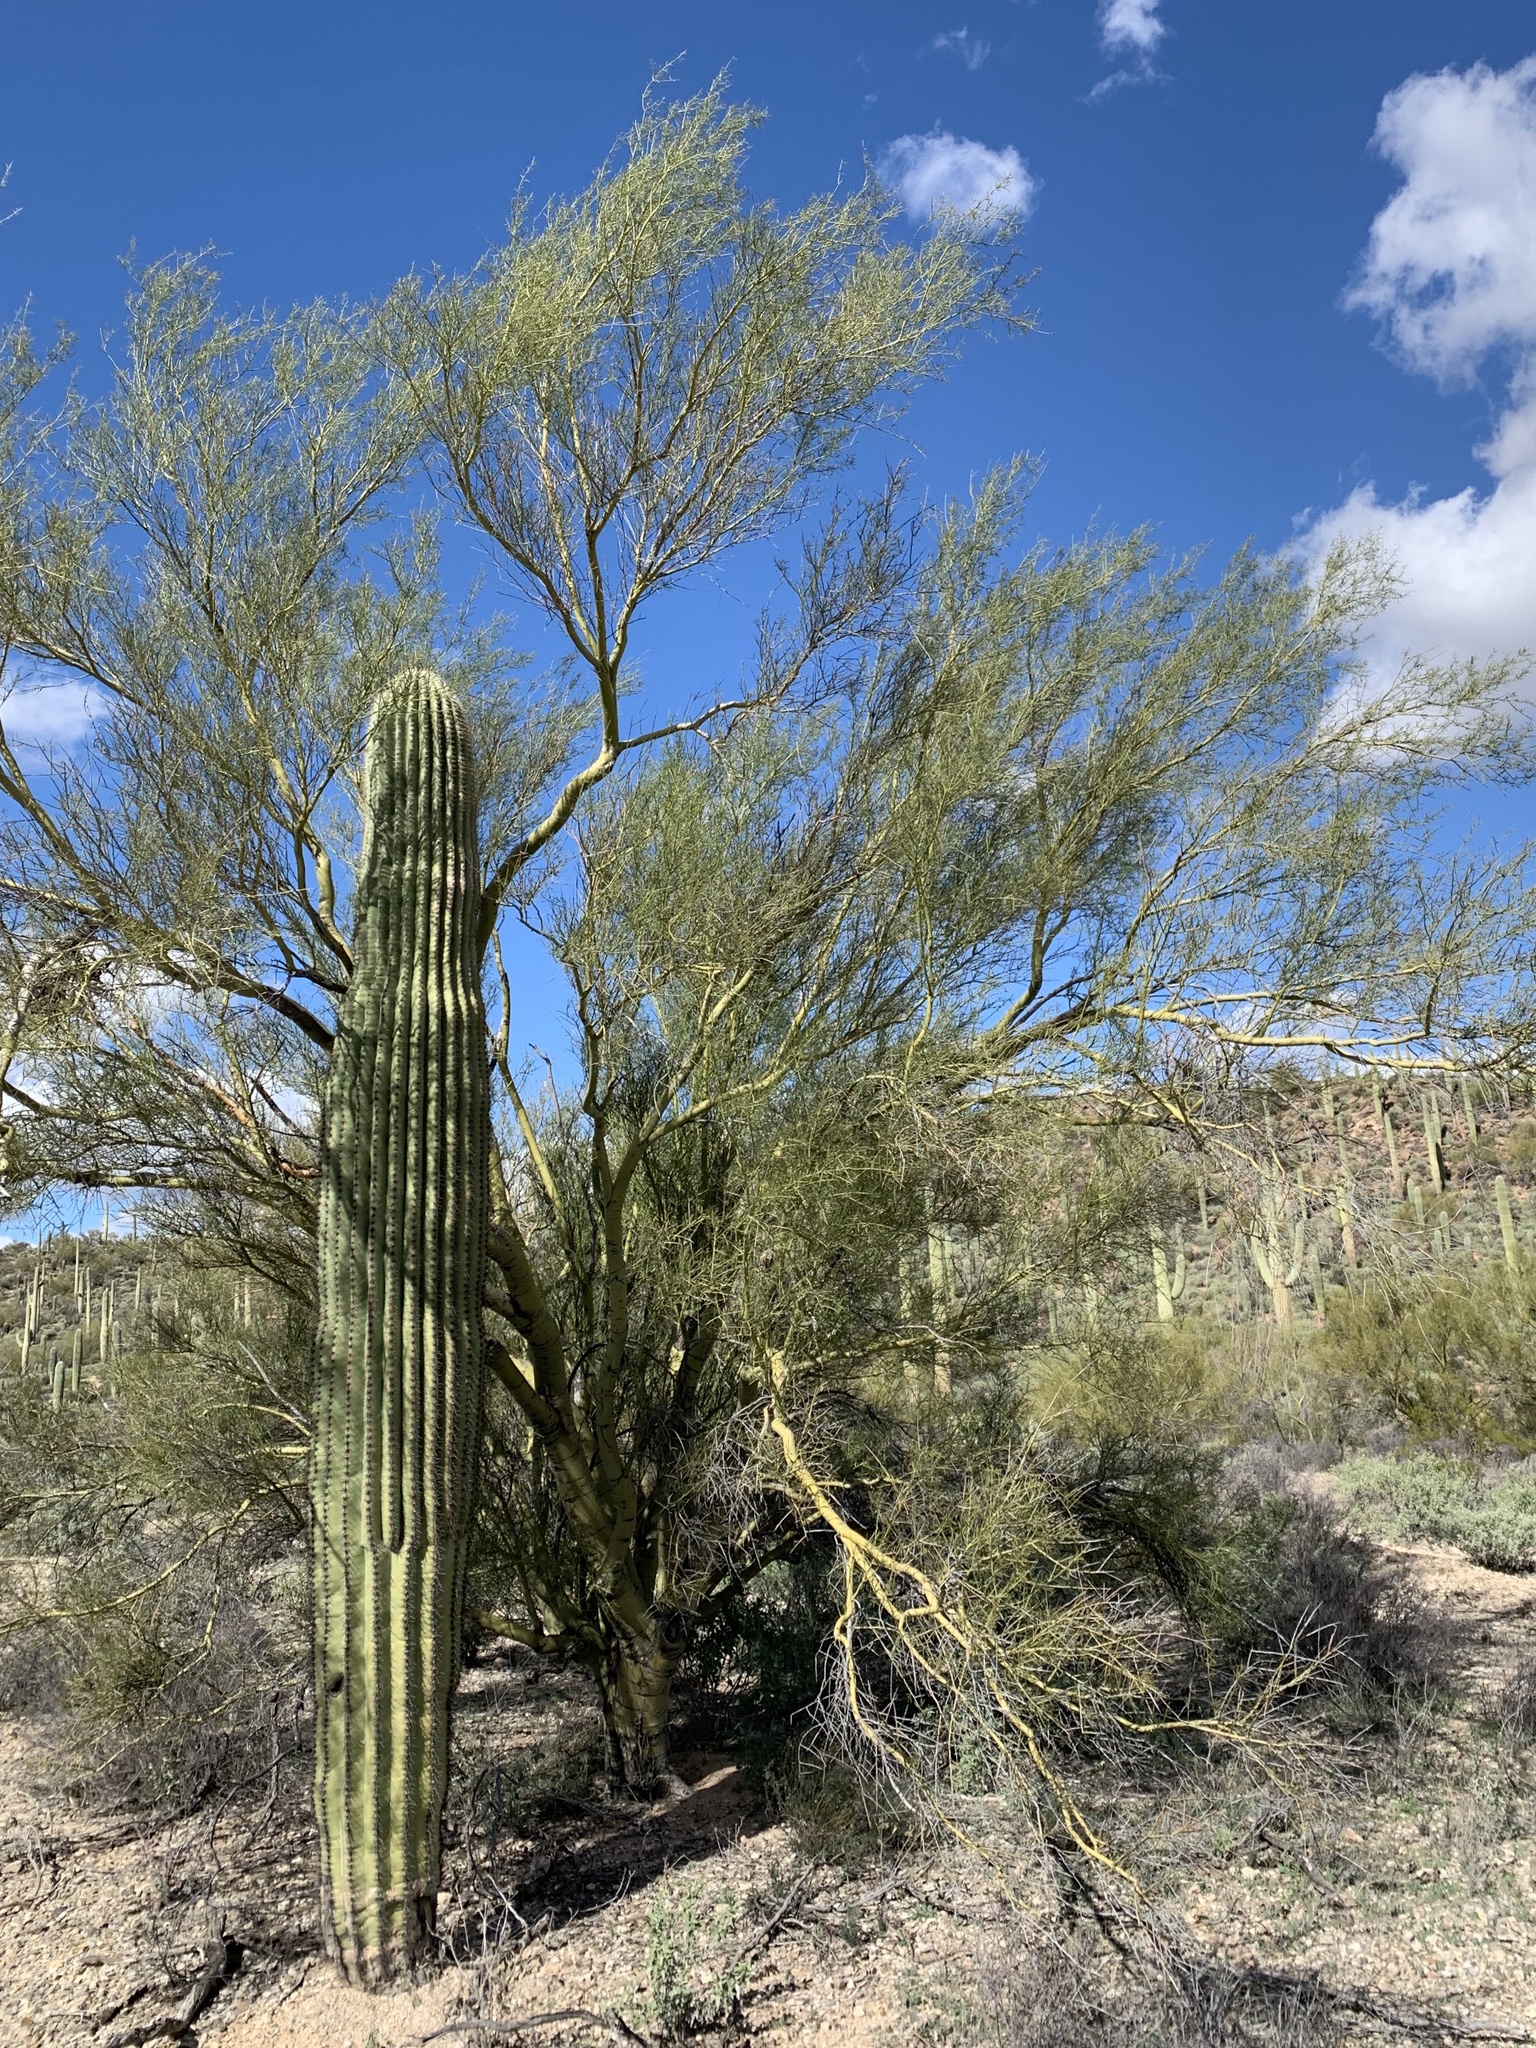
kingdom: Plantae
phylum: Tracheophyta
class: Magnoliopsida
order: Fabales
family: Fabaceae
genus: Parkinsonia
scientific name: Parkinsonia microphylla
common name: Yellow paloverde
